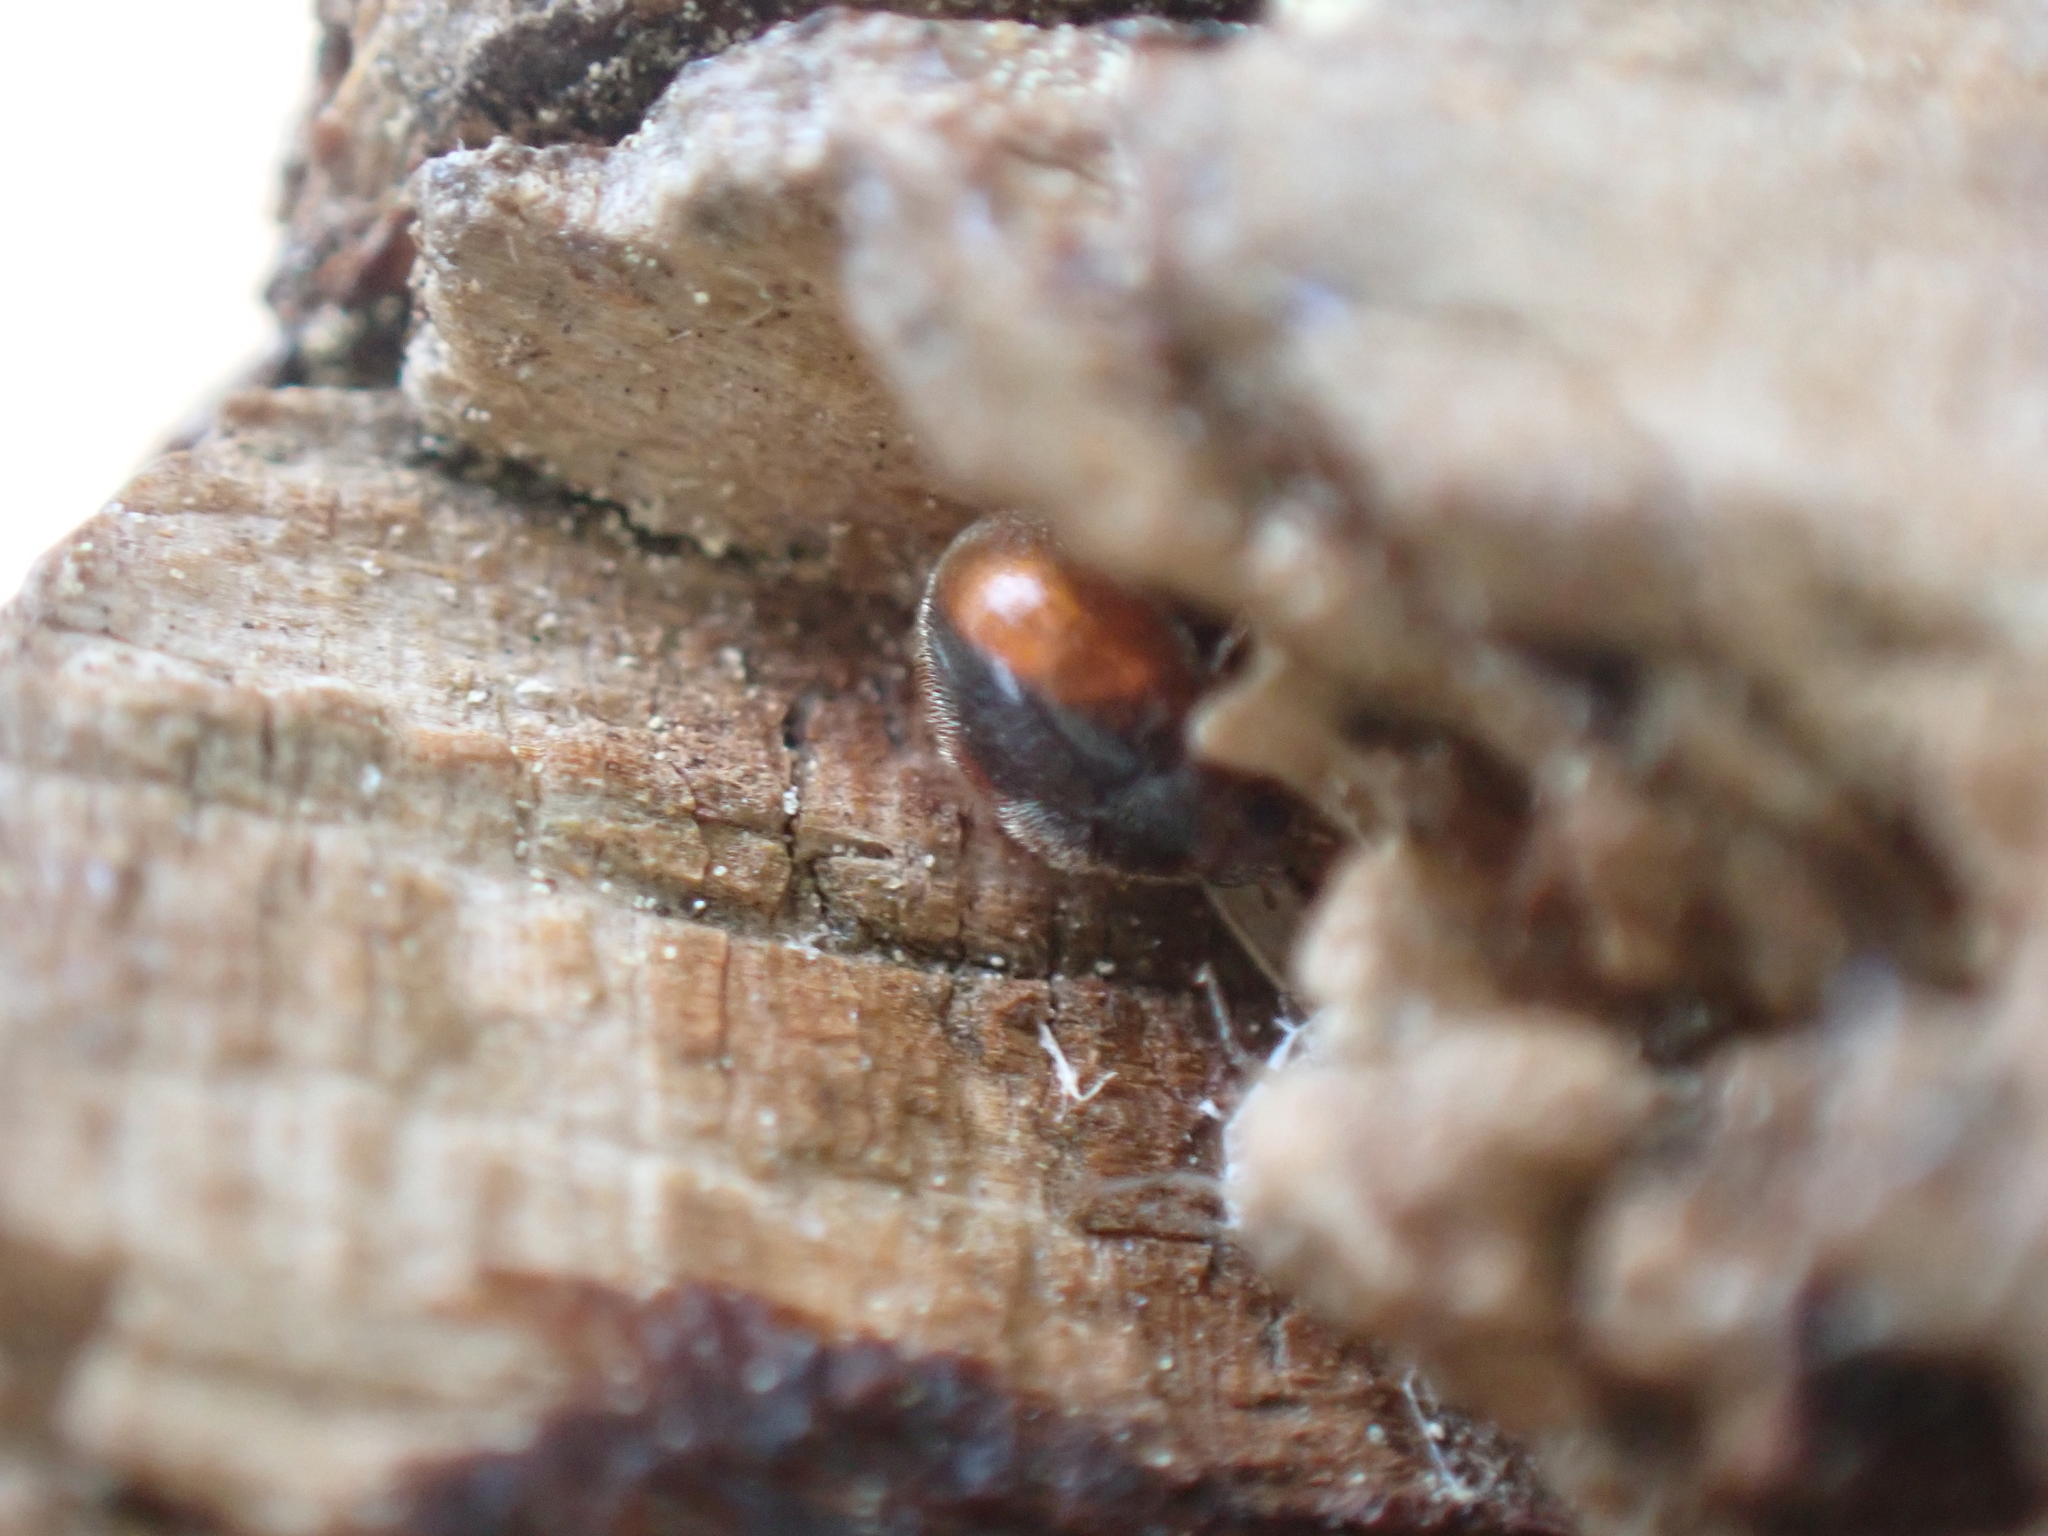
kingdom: Animalia
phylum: Arthropoda
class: Insecta
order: Coleoptera
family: Coccinellidae
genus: Scymnus
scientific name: Scymnus loewii
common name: Dusky lady beetle
